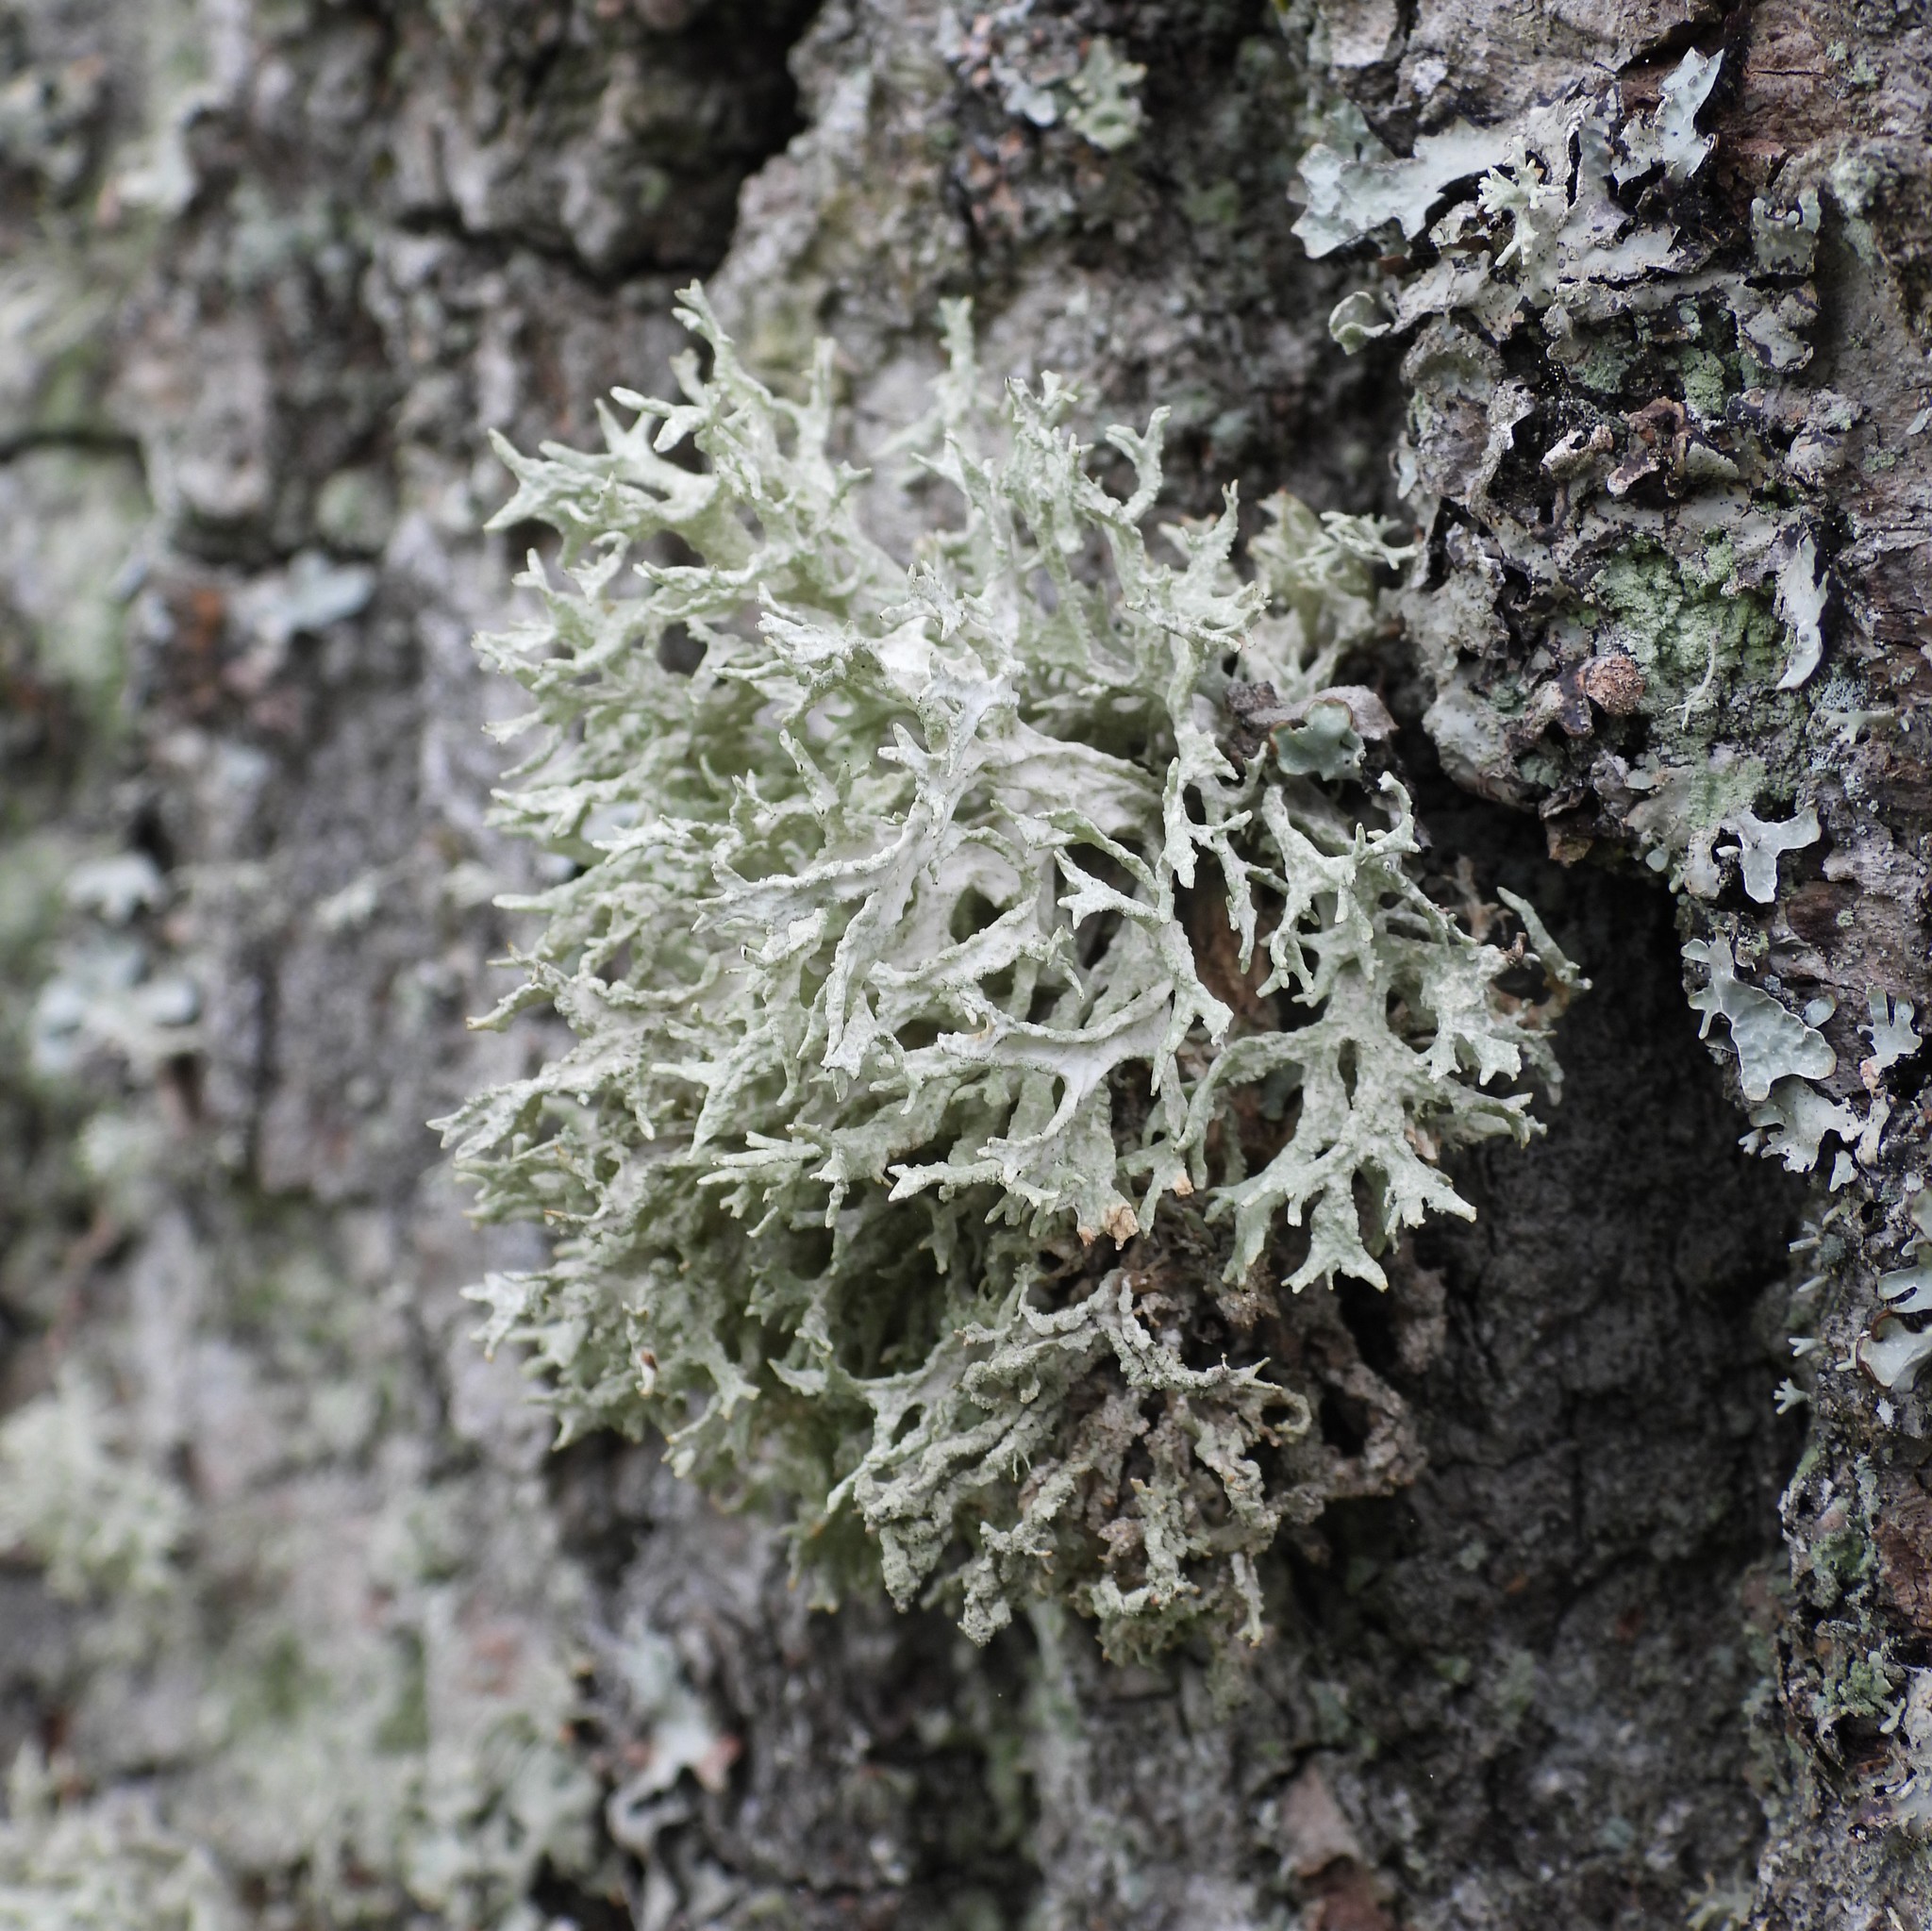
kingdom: Fungi
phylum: Ascomycota
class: Lecanoromycetes
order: Lecanorales
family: Parmeliaceae
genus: Evernia
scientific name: Evernia prunastri
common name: Oak moss
